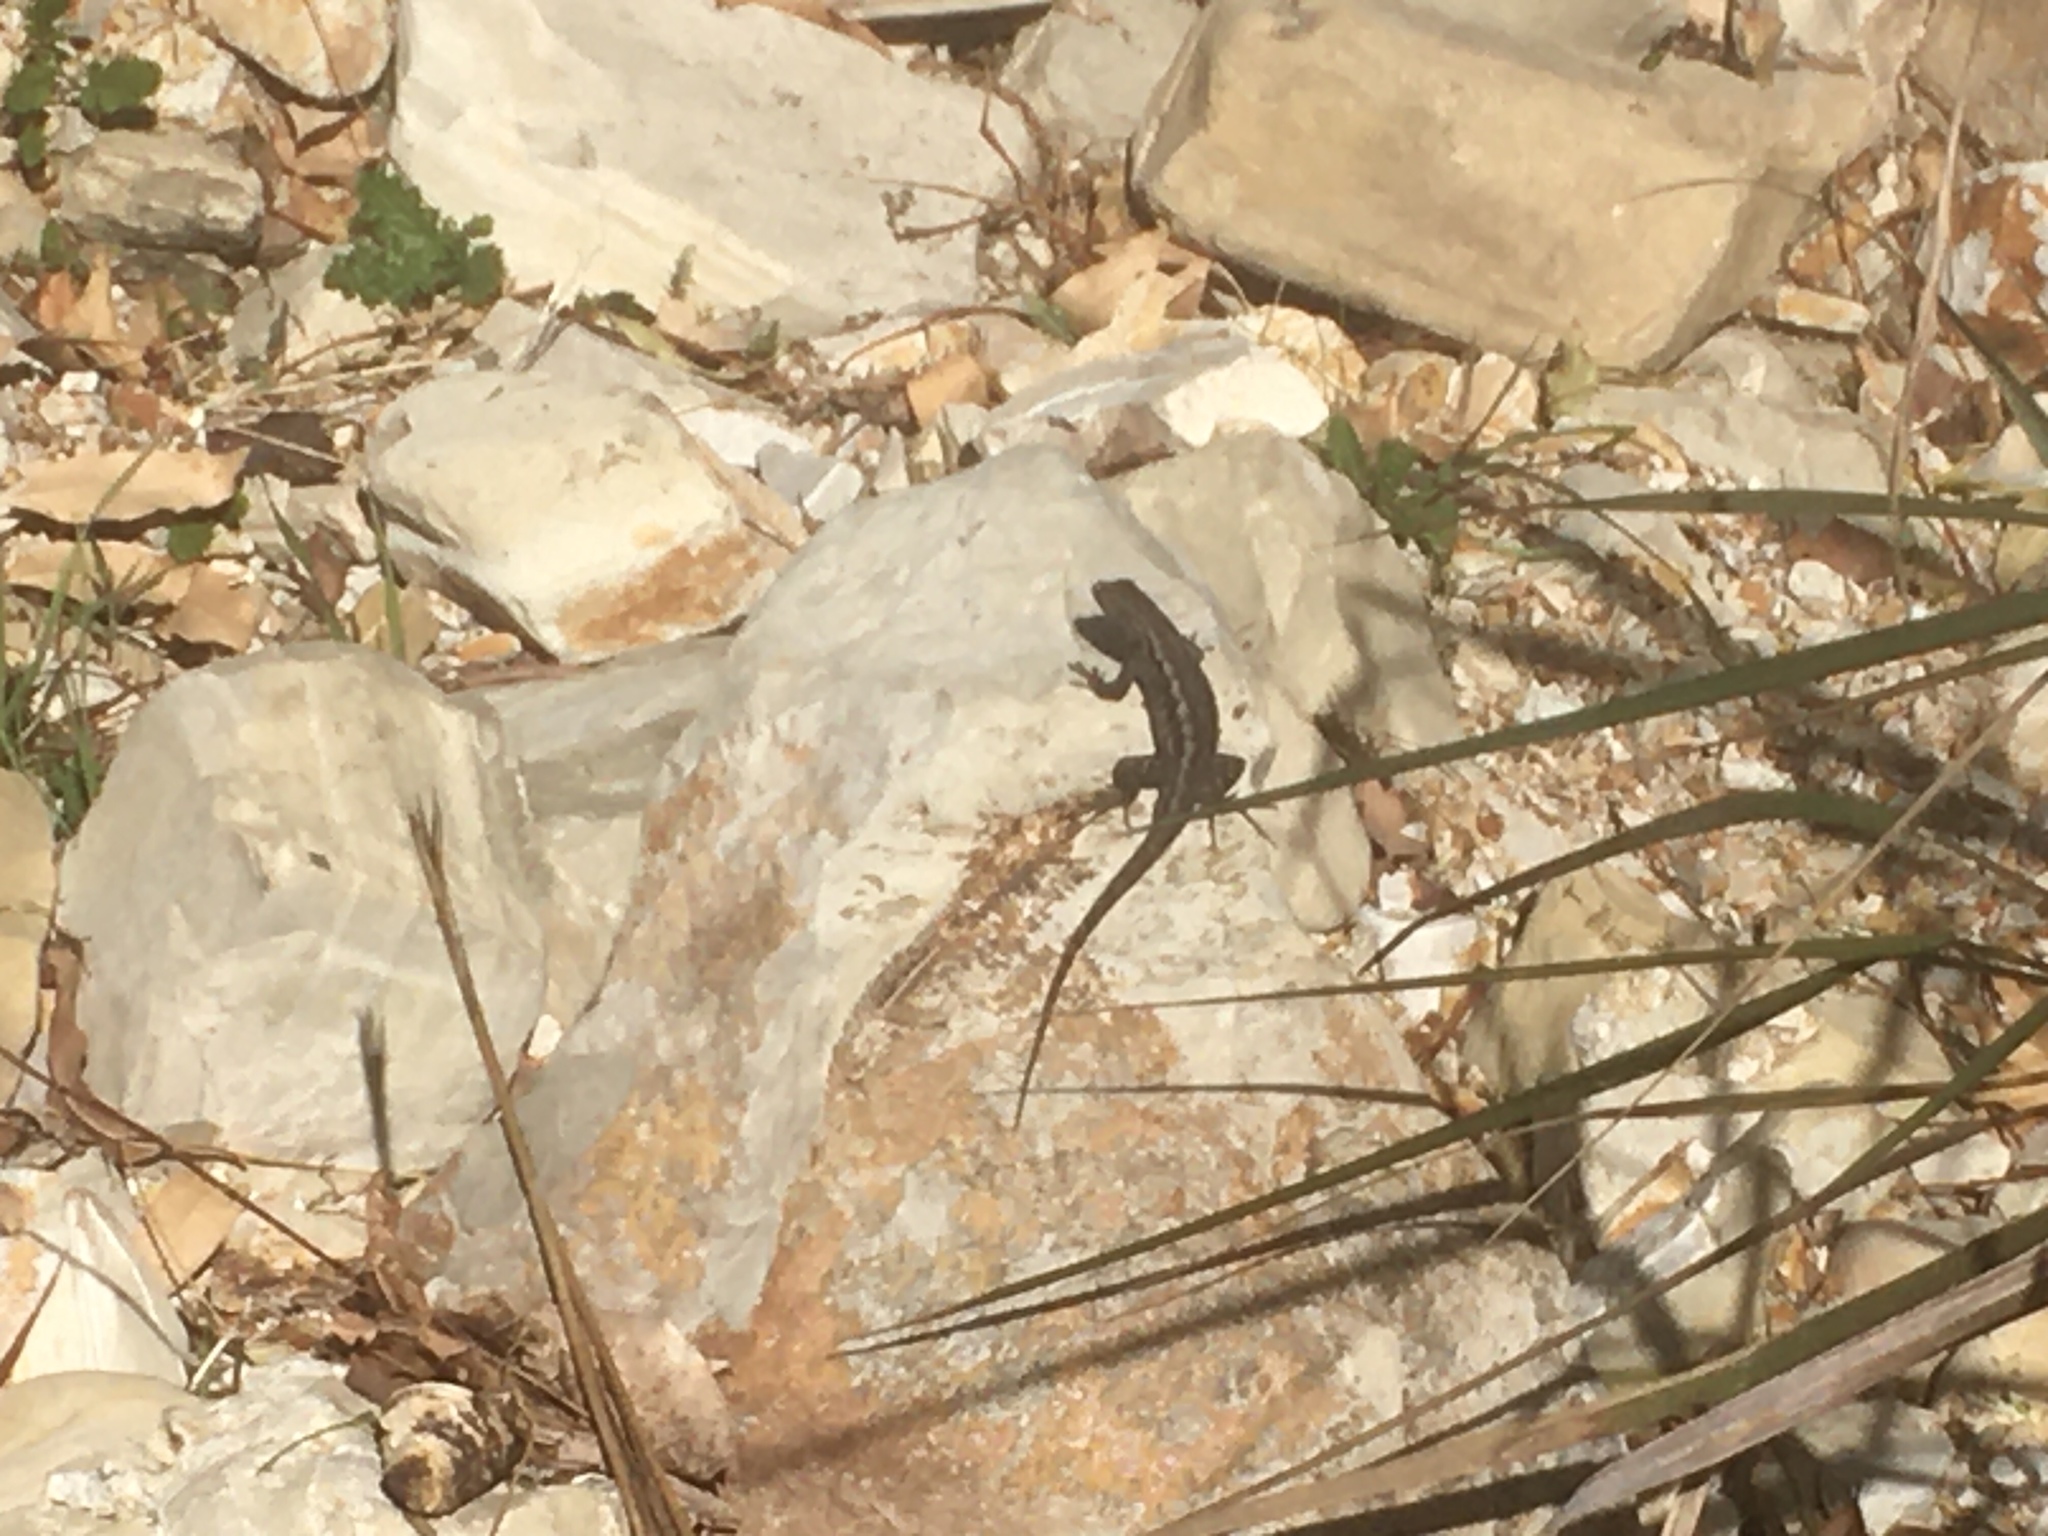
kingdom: Animalia
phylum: Chordata
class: Squamata
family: Phrynosomatidae
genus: Sceloporus
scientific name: Sceloporus occidentalis
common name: Western fence lizard
